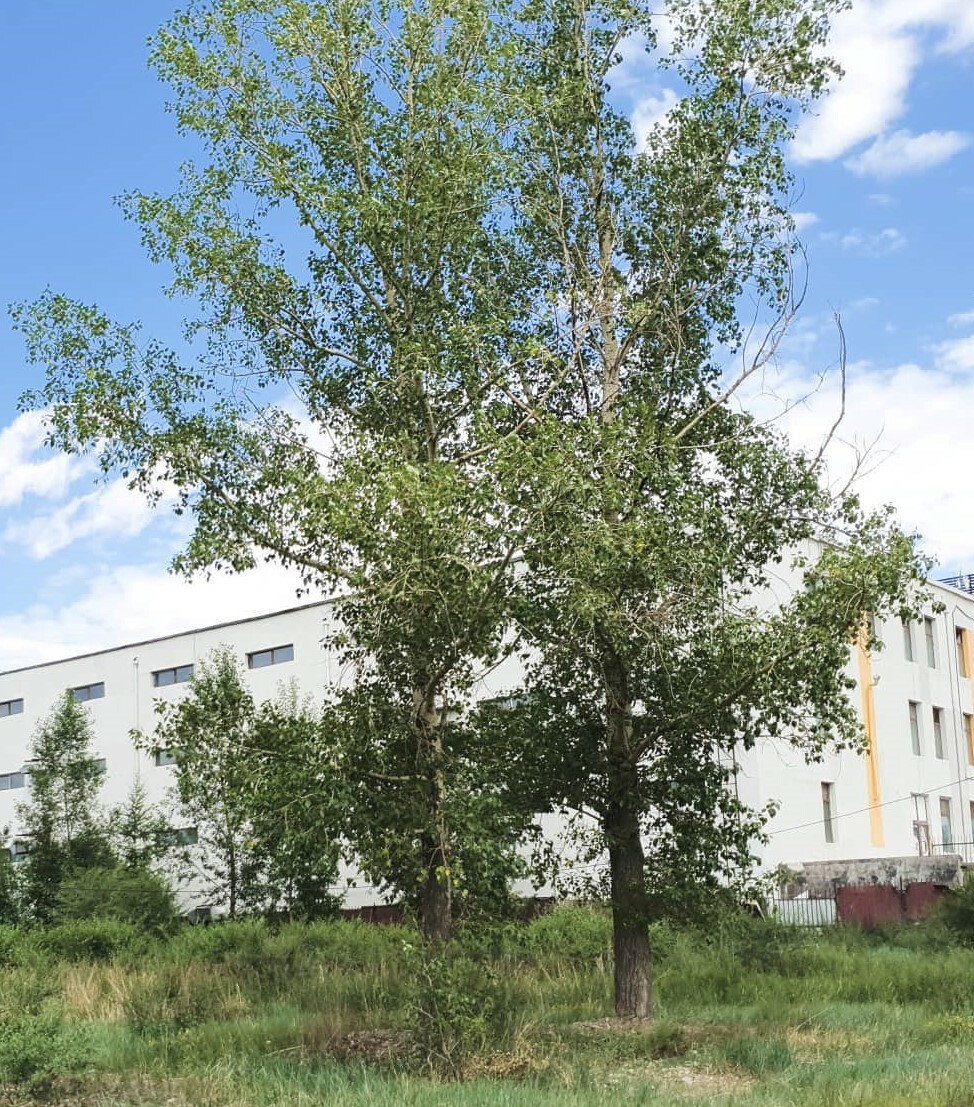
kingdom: Plantae
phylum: Tracheophyta
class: Magnoliopsida
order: Malpighiales
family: Salicaceae
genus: Populus
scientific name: Populus tremula
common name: European aspen
